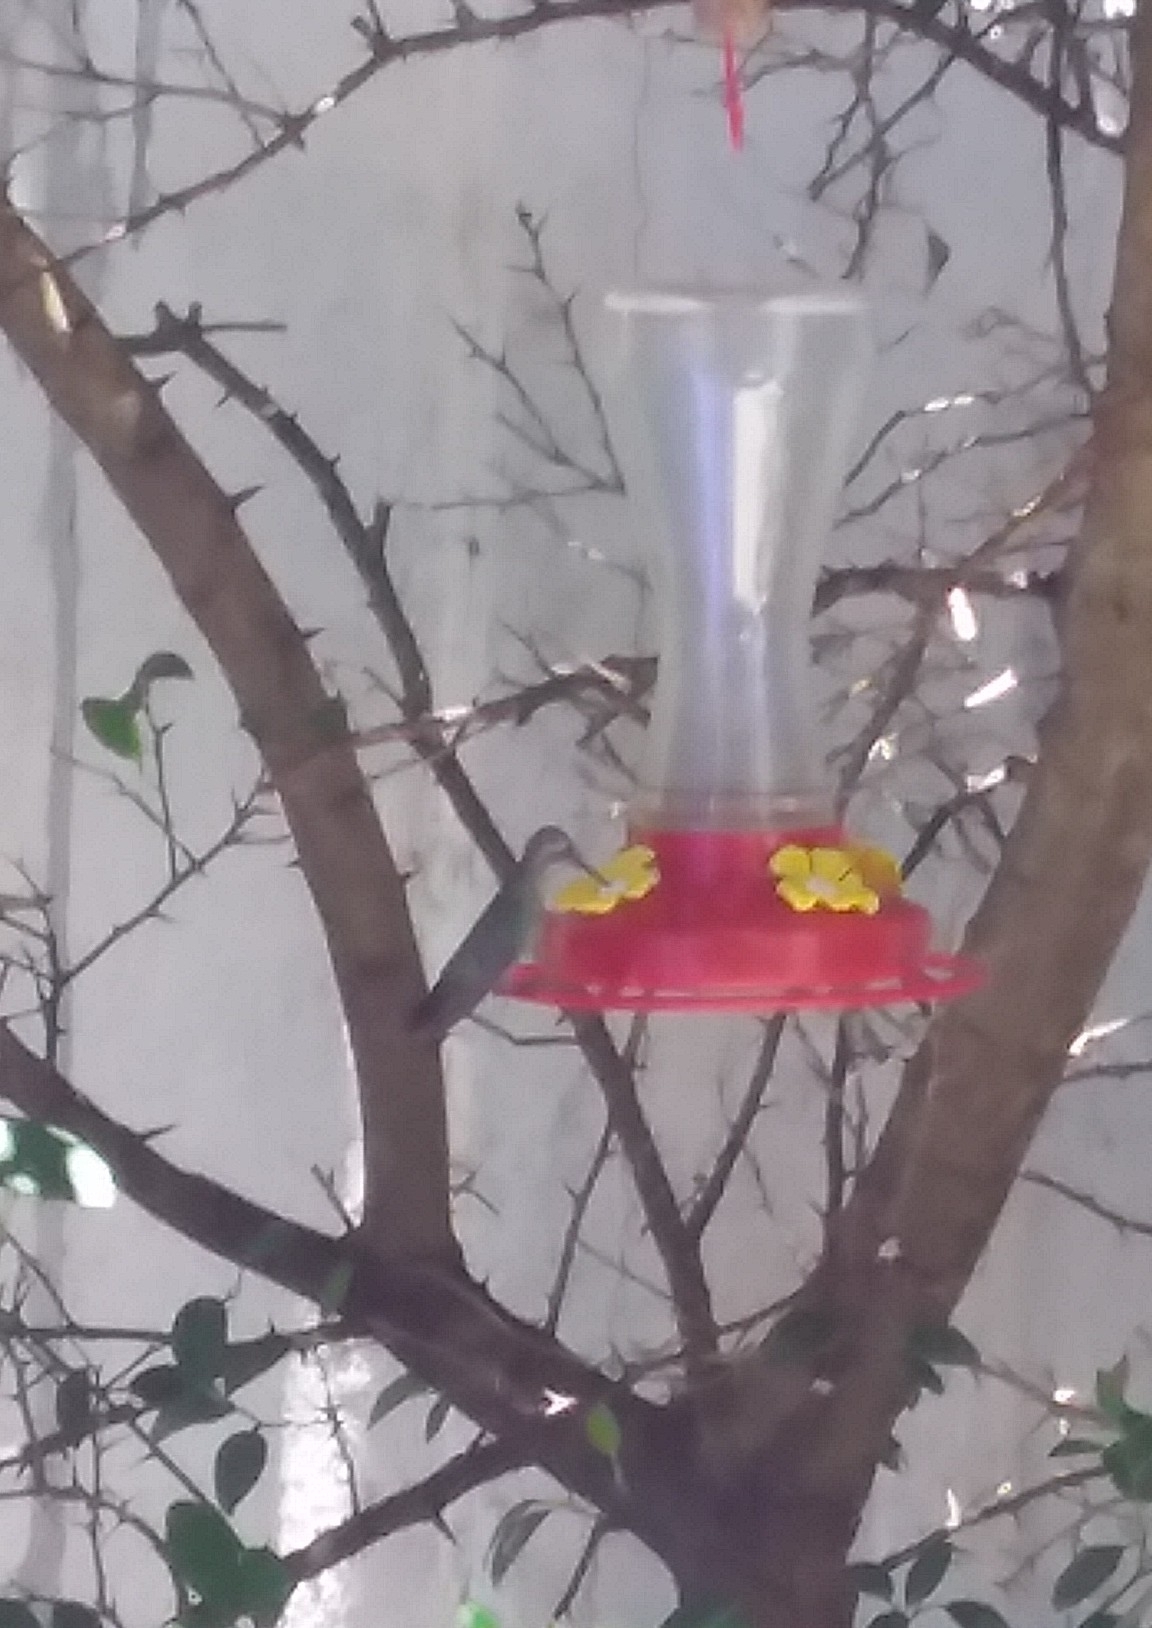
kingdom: Animalia
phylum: Chordata
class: Aves
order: Apodiformes
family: Trochilidae
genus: Cynanthus
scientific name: Cynanthus latirostris
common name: Broad-billed hummingbird
